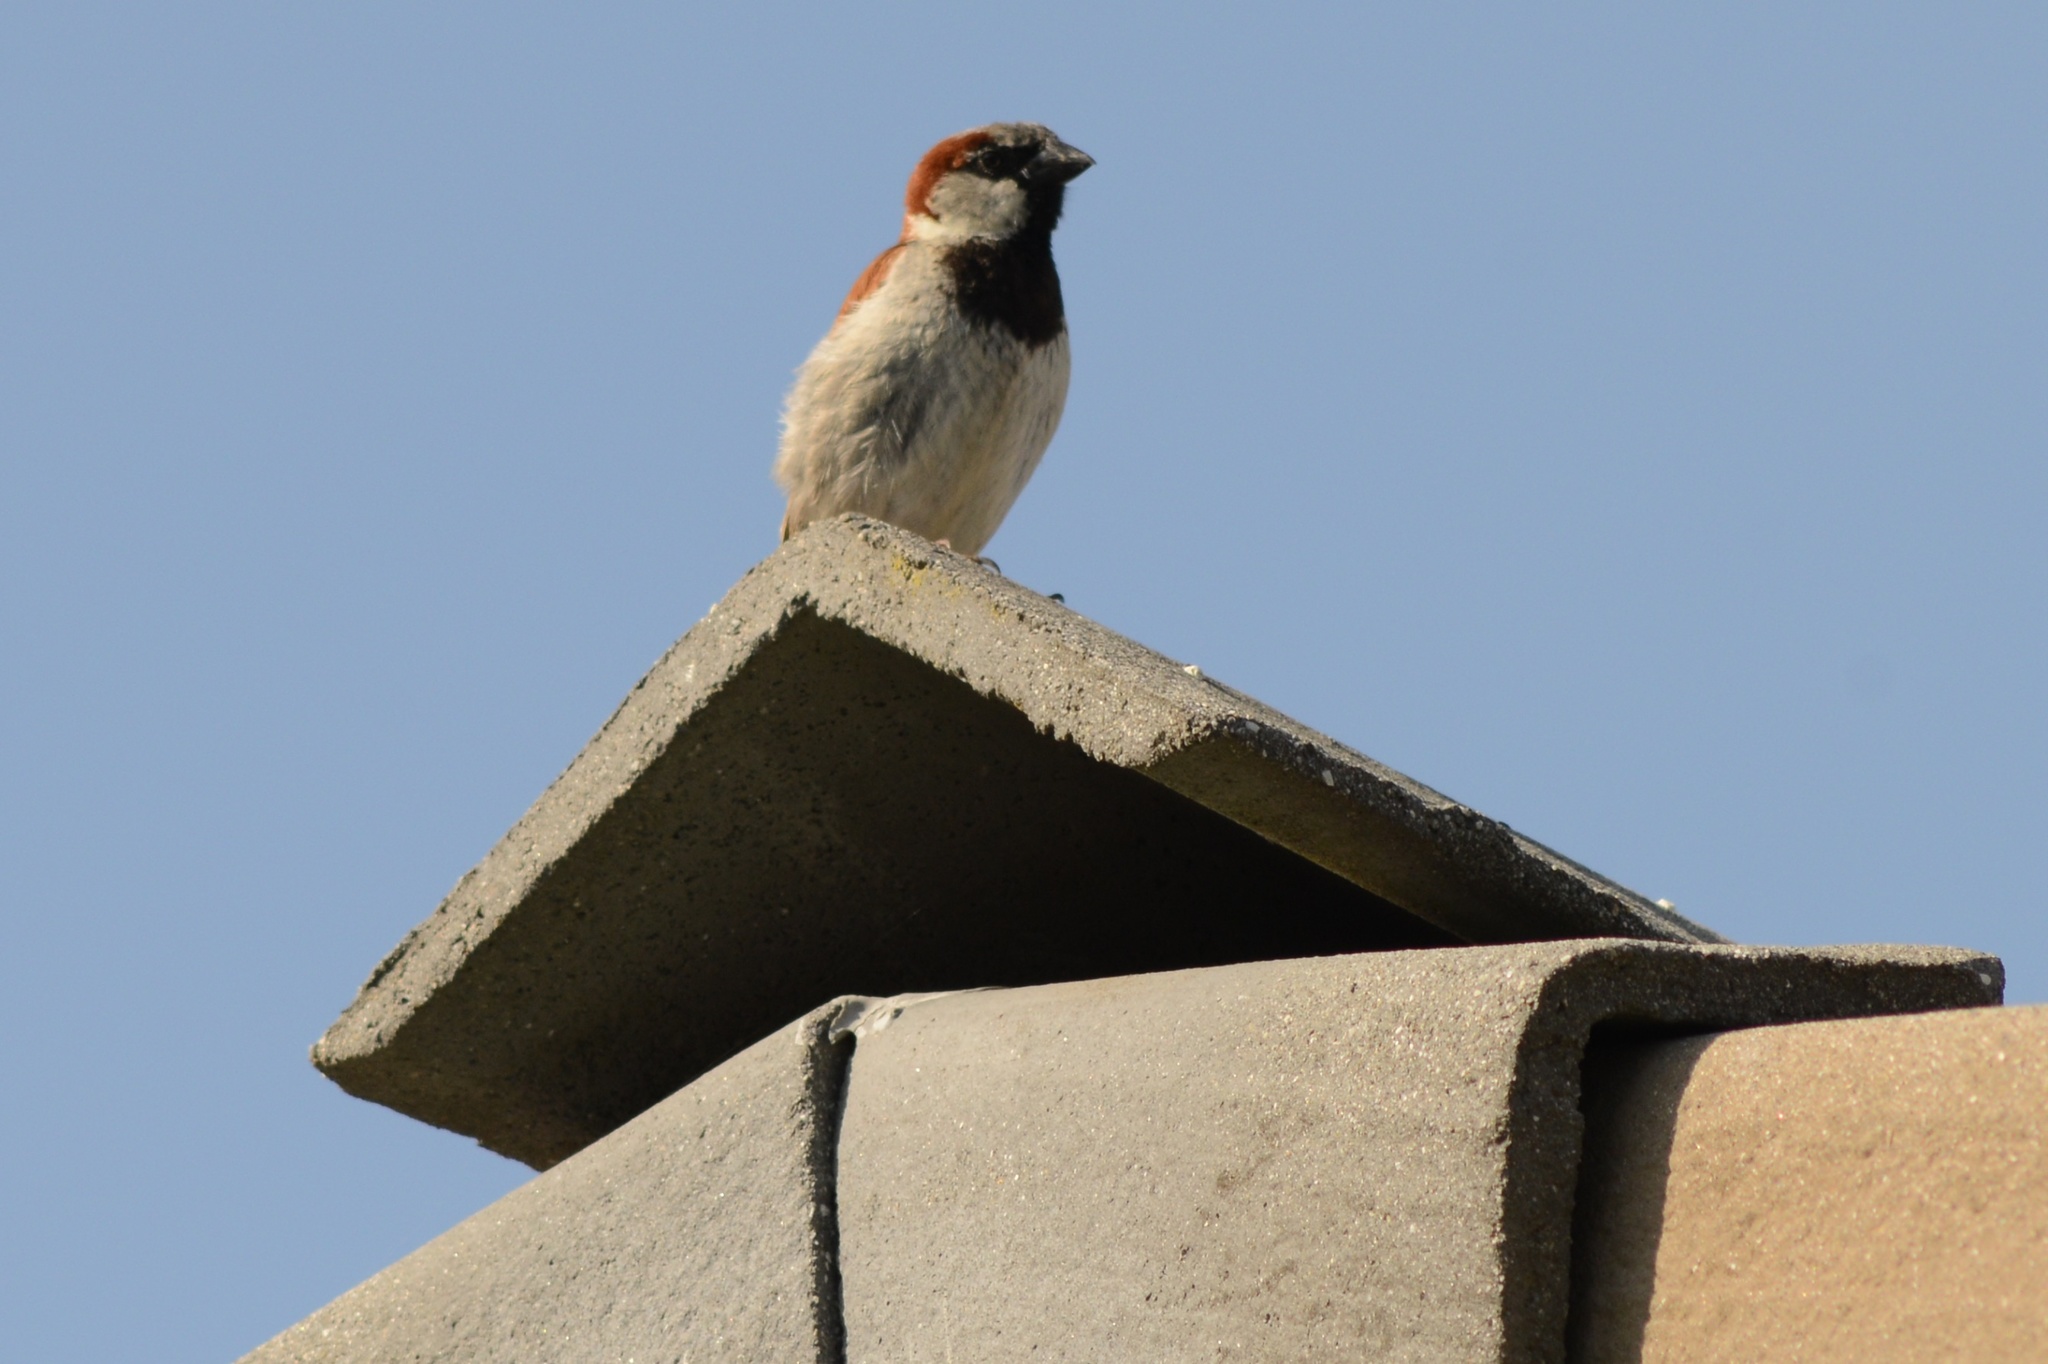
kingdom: Animalia
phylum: Chordata
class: Aves
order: Passeriformes
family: Passeridae
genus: Passer
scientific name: Passer domesticus
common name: House sparrow
